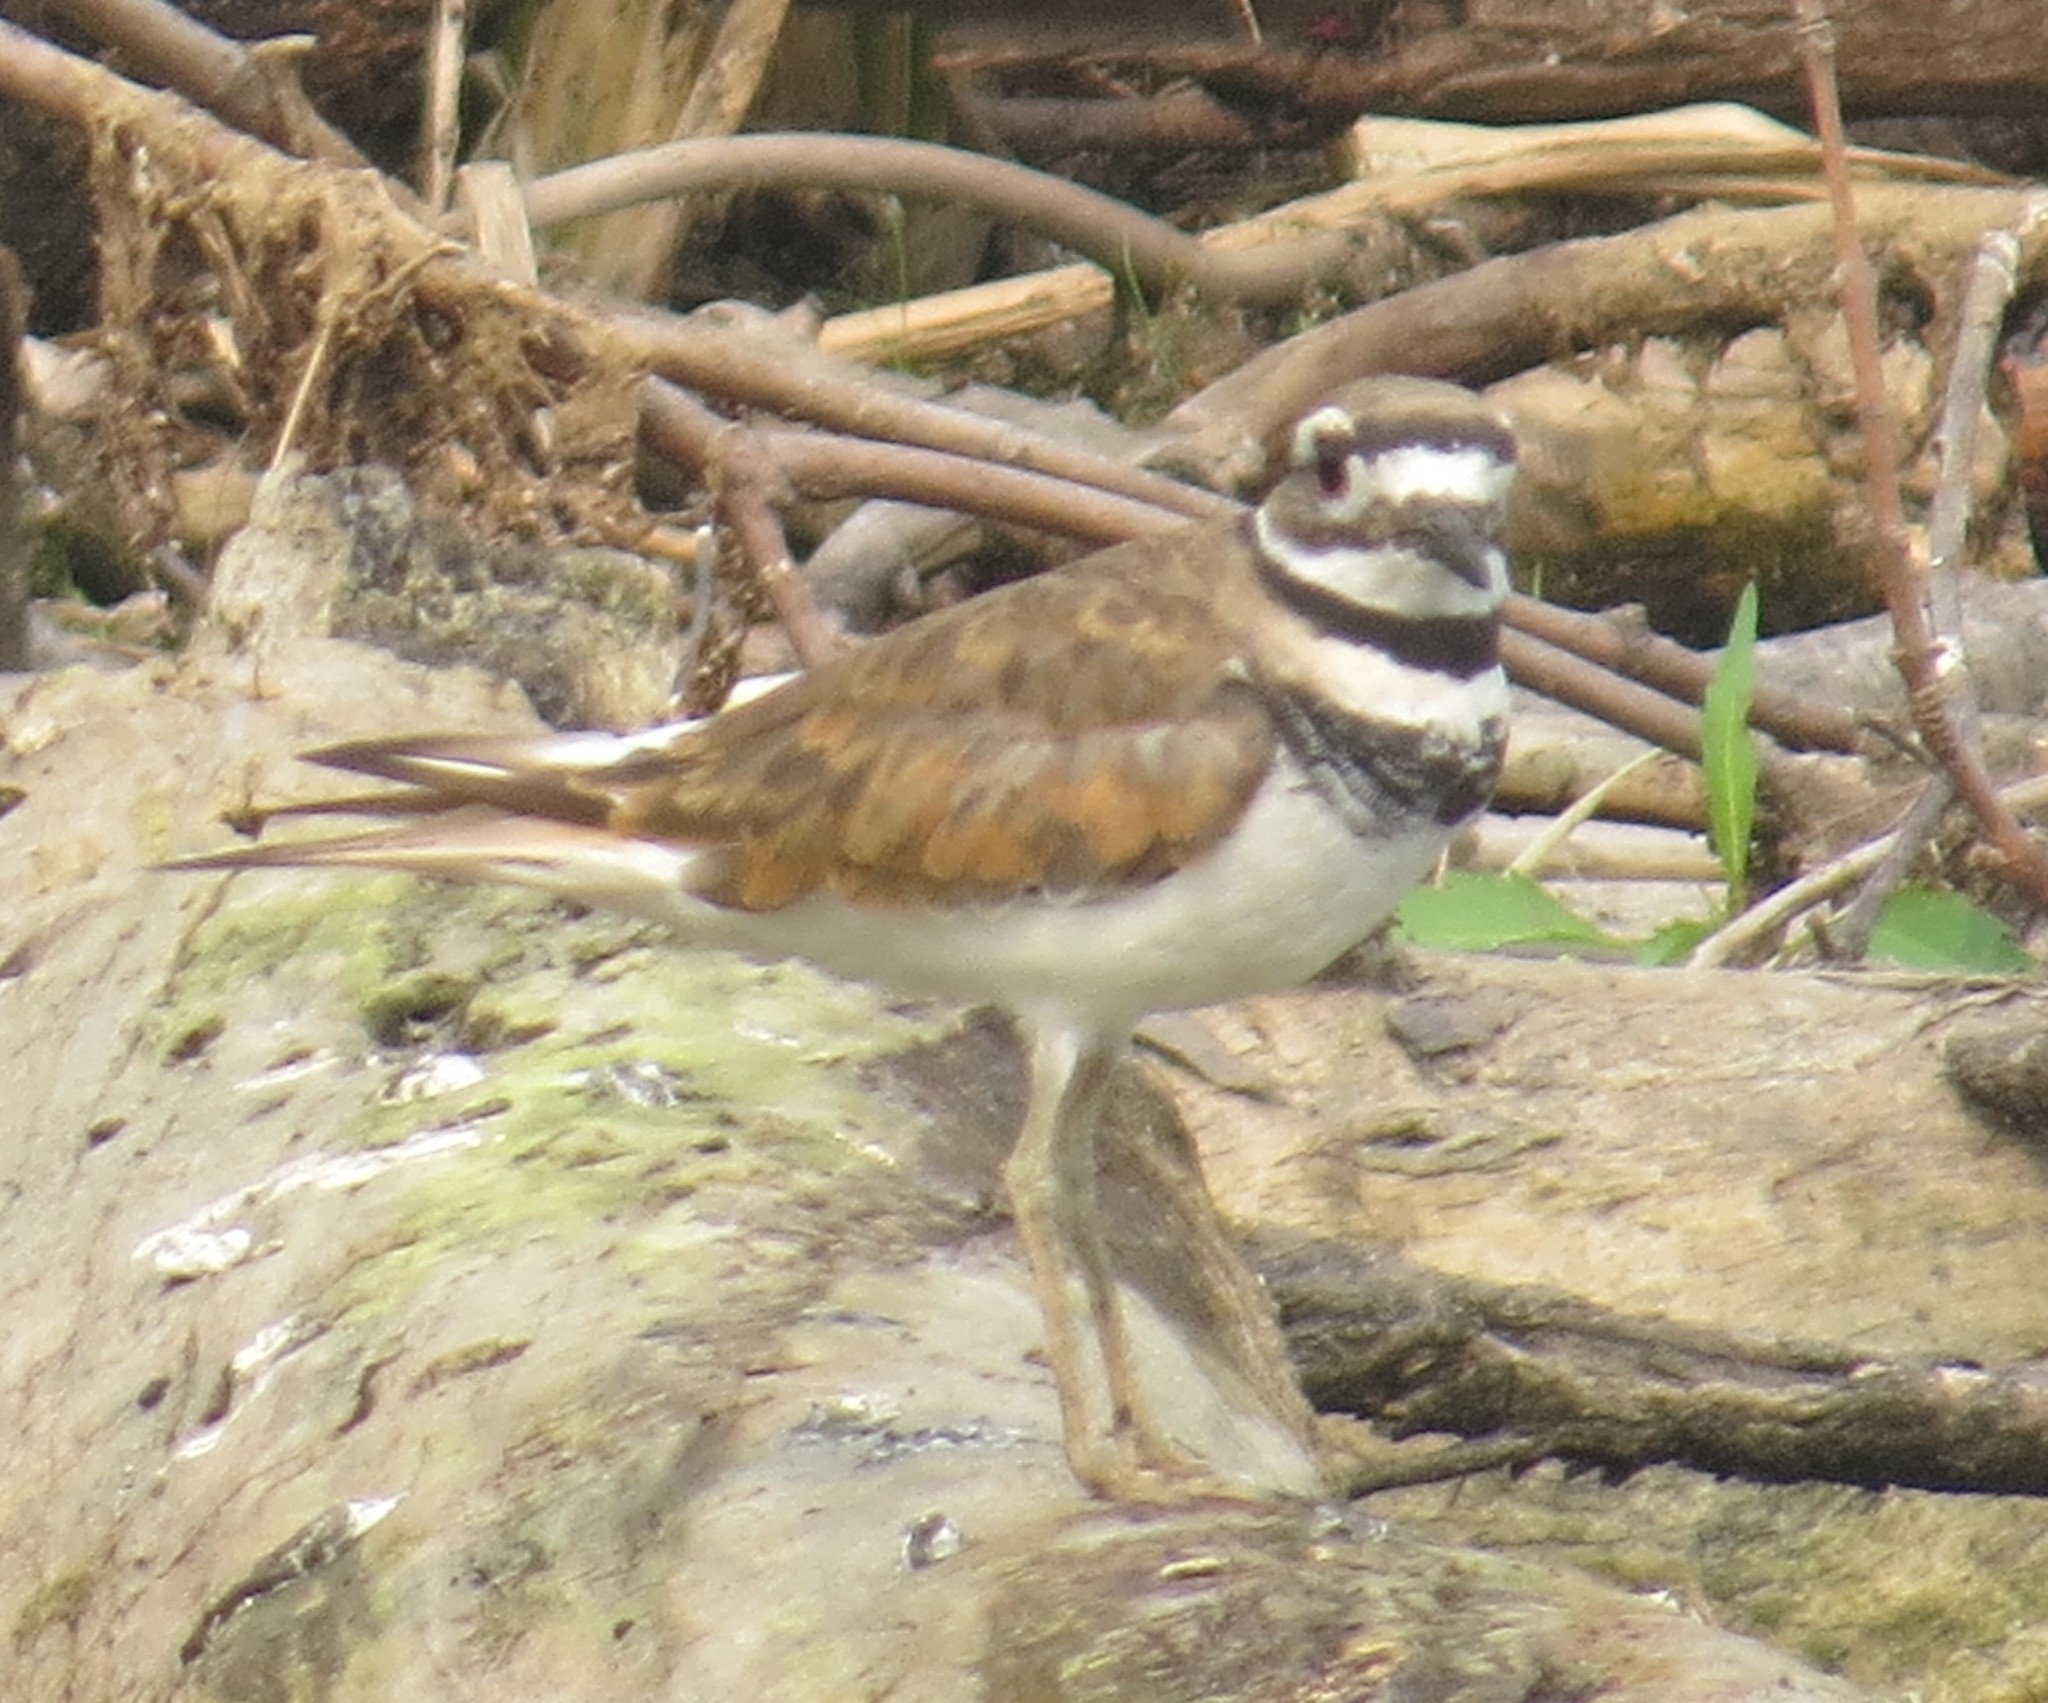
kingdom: Animalia
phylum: Chordata
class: Aves
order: Charadriiformes
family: Charadriidae
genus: Charadrius
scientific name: Charadrius vociferus
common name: Killdeer
